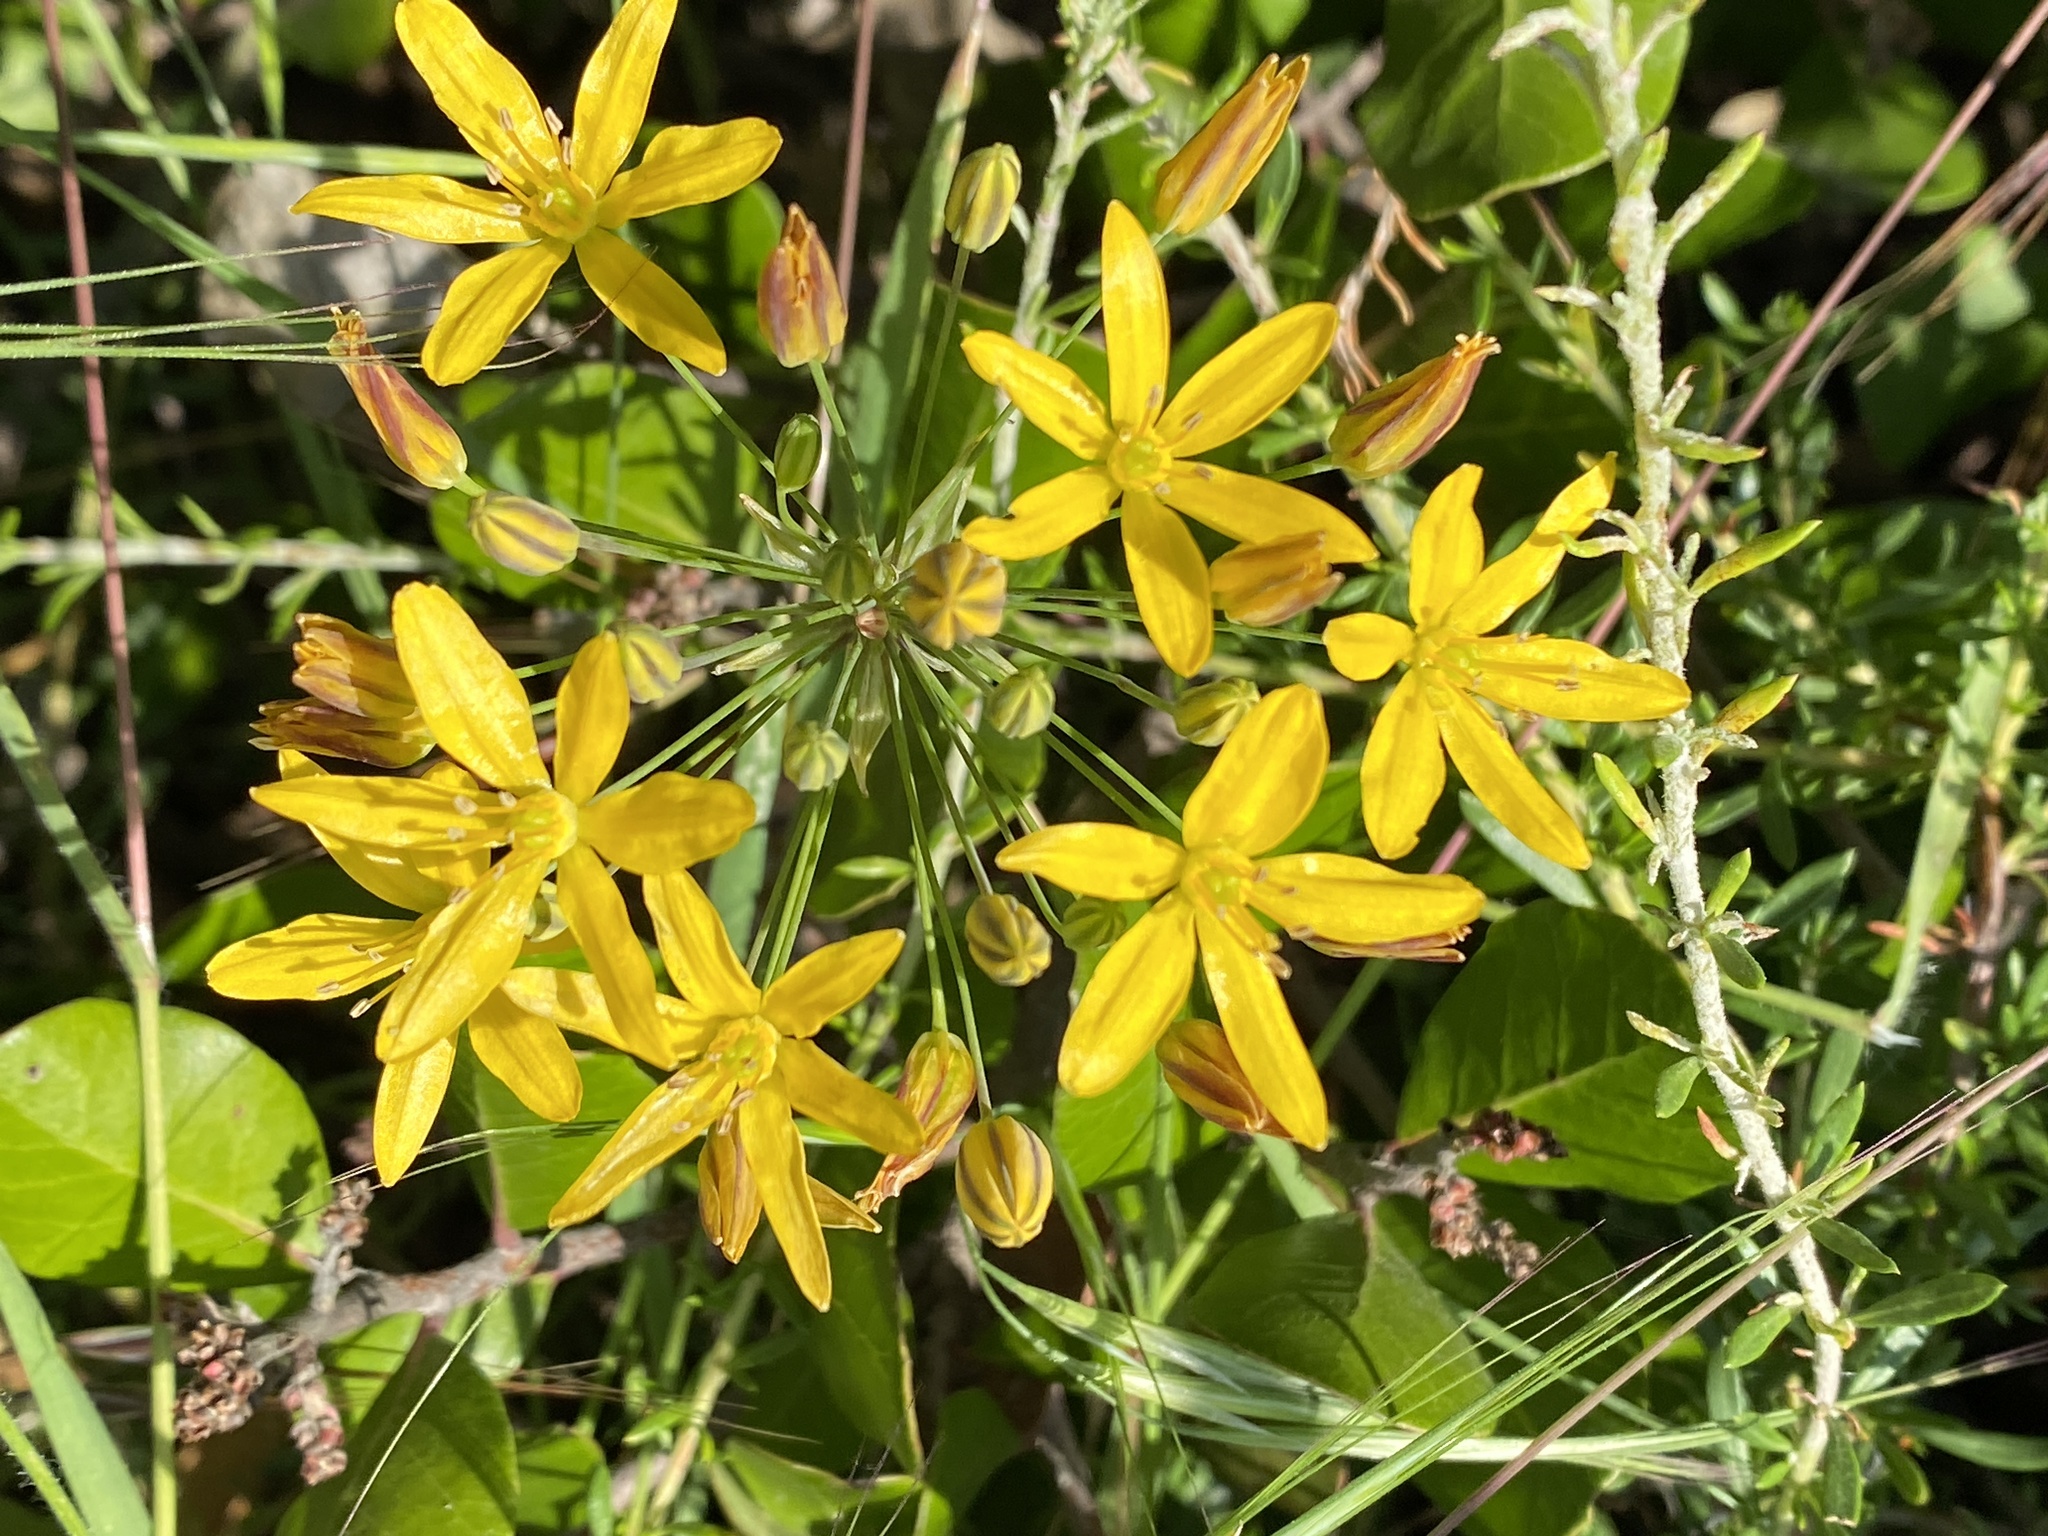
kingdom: Plantae
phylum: Tracheophyta
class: Liliopsida
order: Asparagales
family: Asparagaceae
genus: Bloomeria
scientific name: Bloomeria crocea
